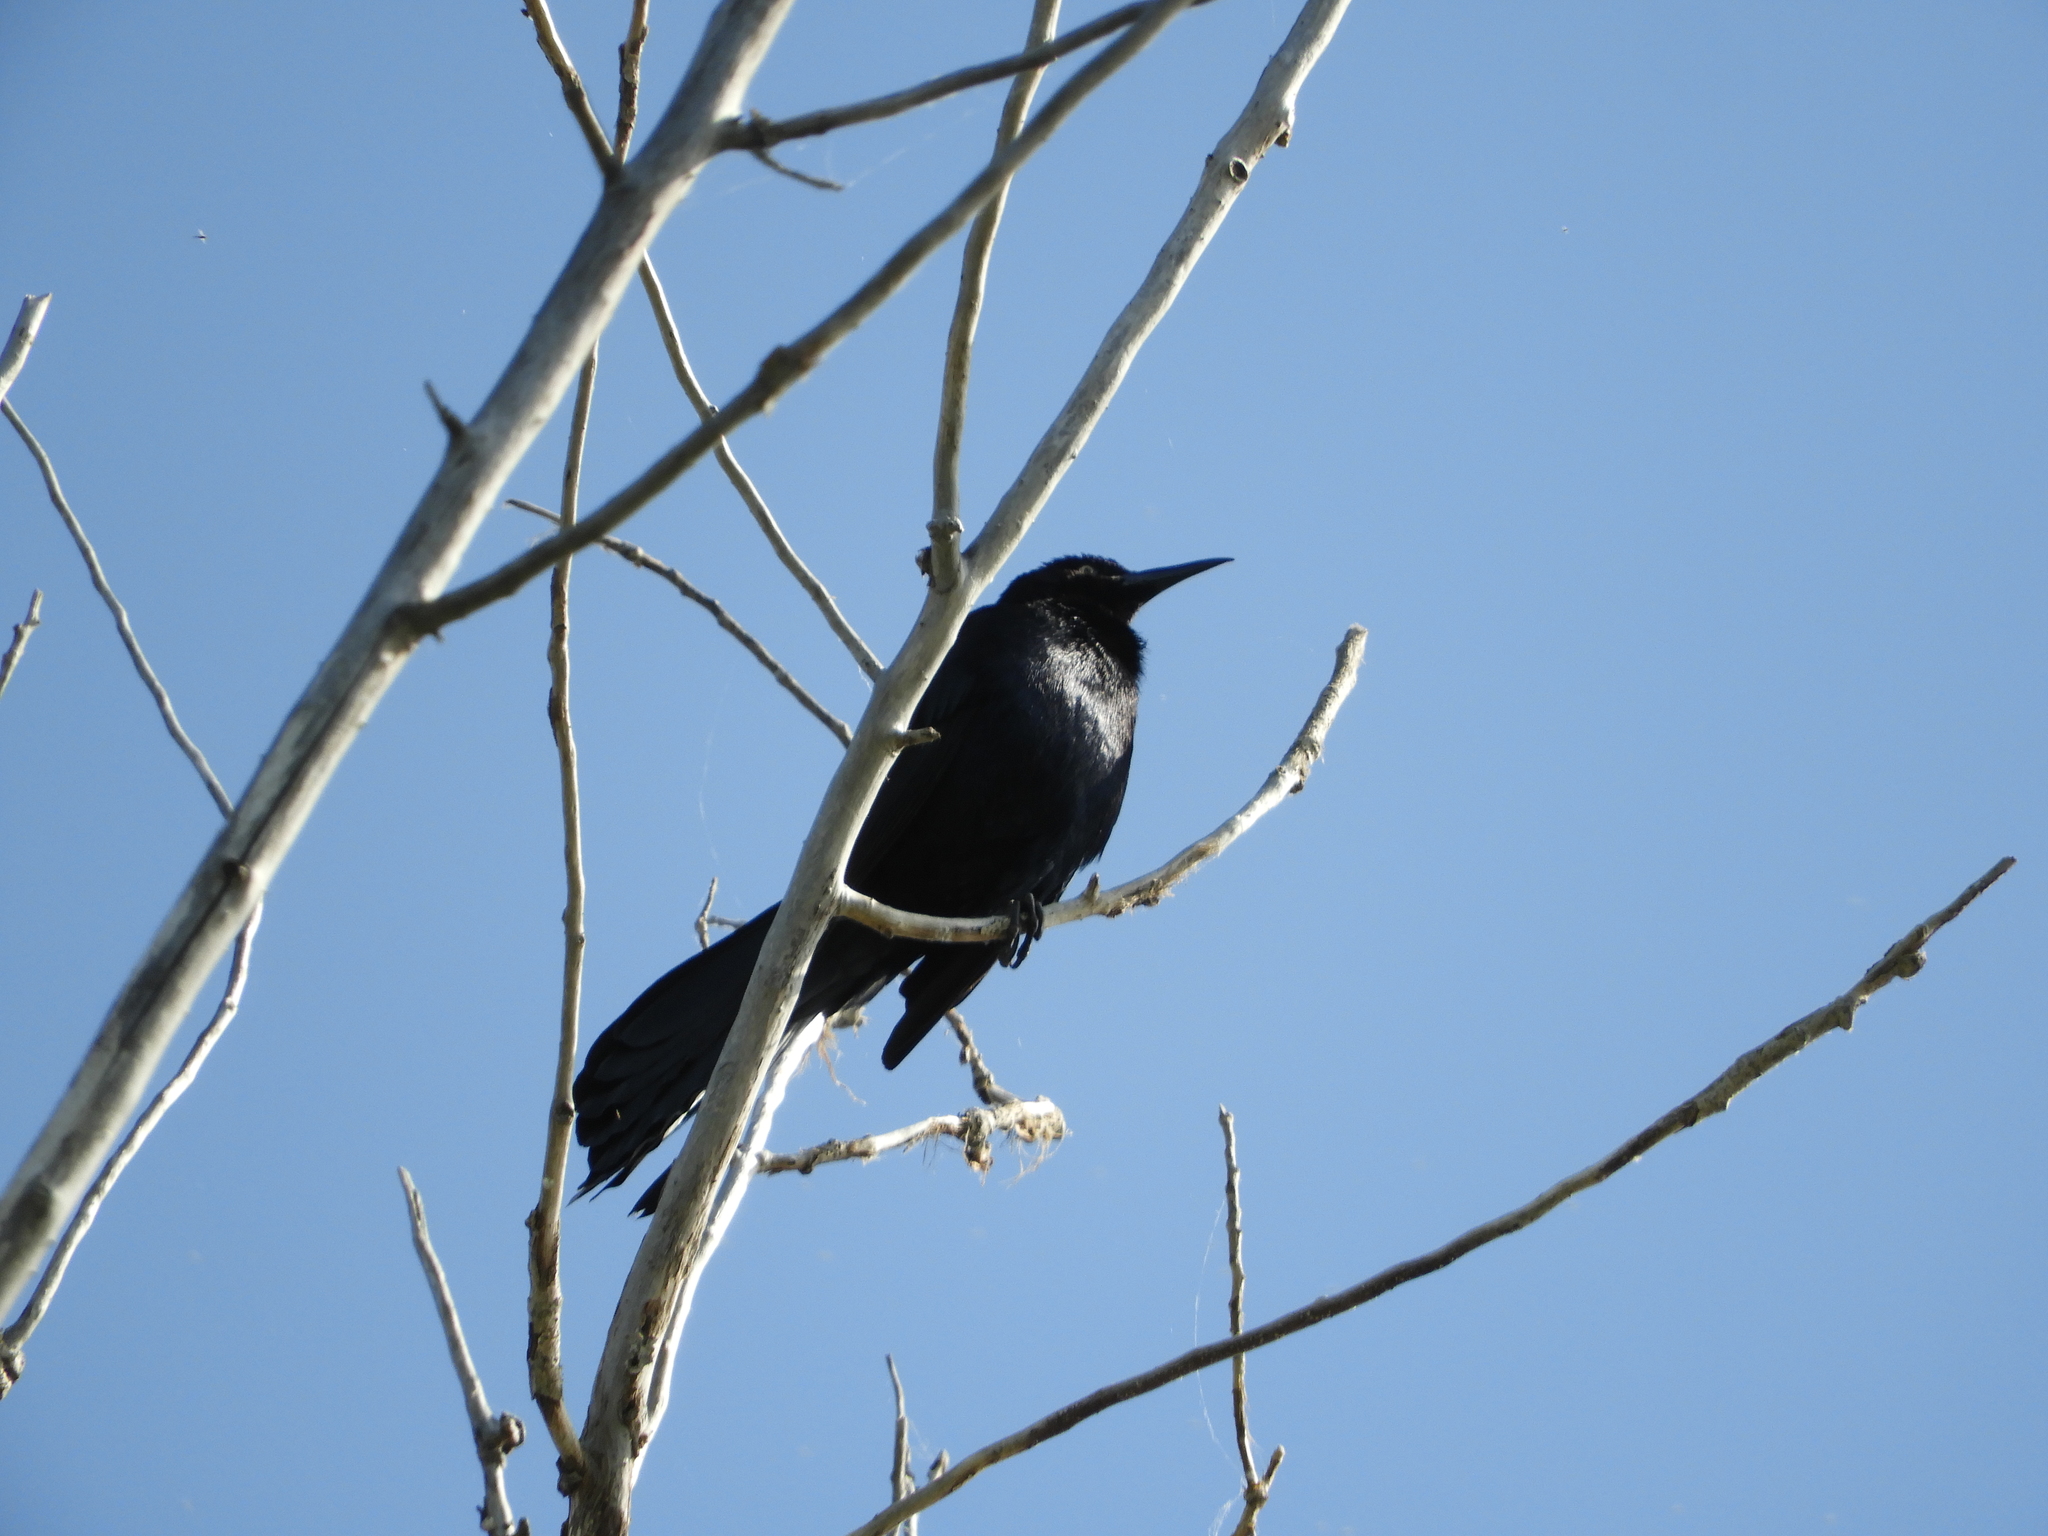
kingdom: Animalia
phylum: Chordata
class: Aves
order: Passeriformes
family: Icteridae
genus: Quiscalus
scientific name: Quiscalus mexicanus
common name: Great-tailed grackle
